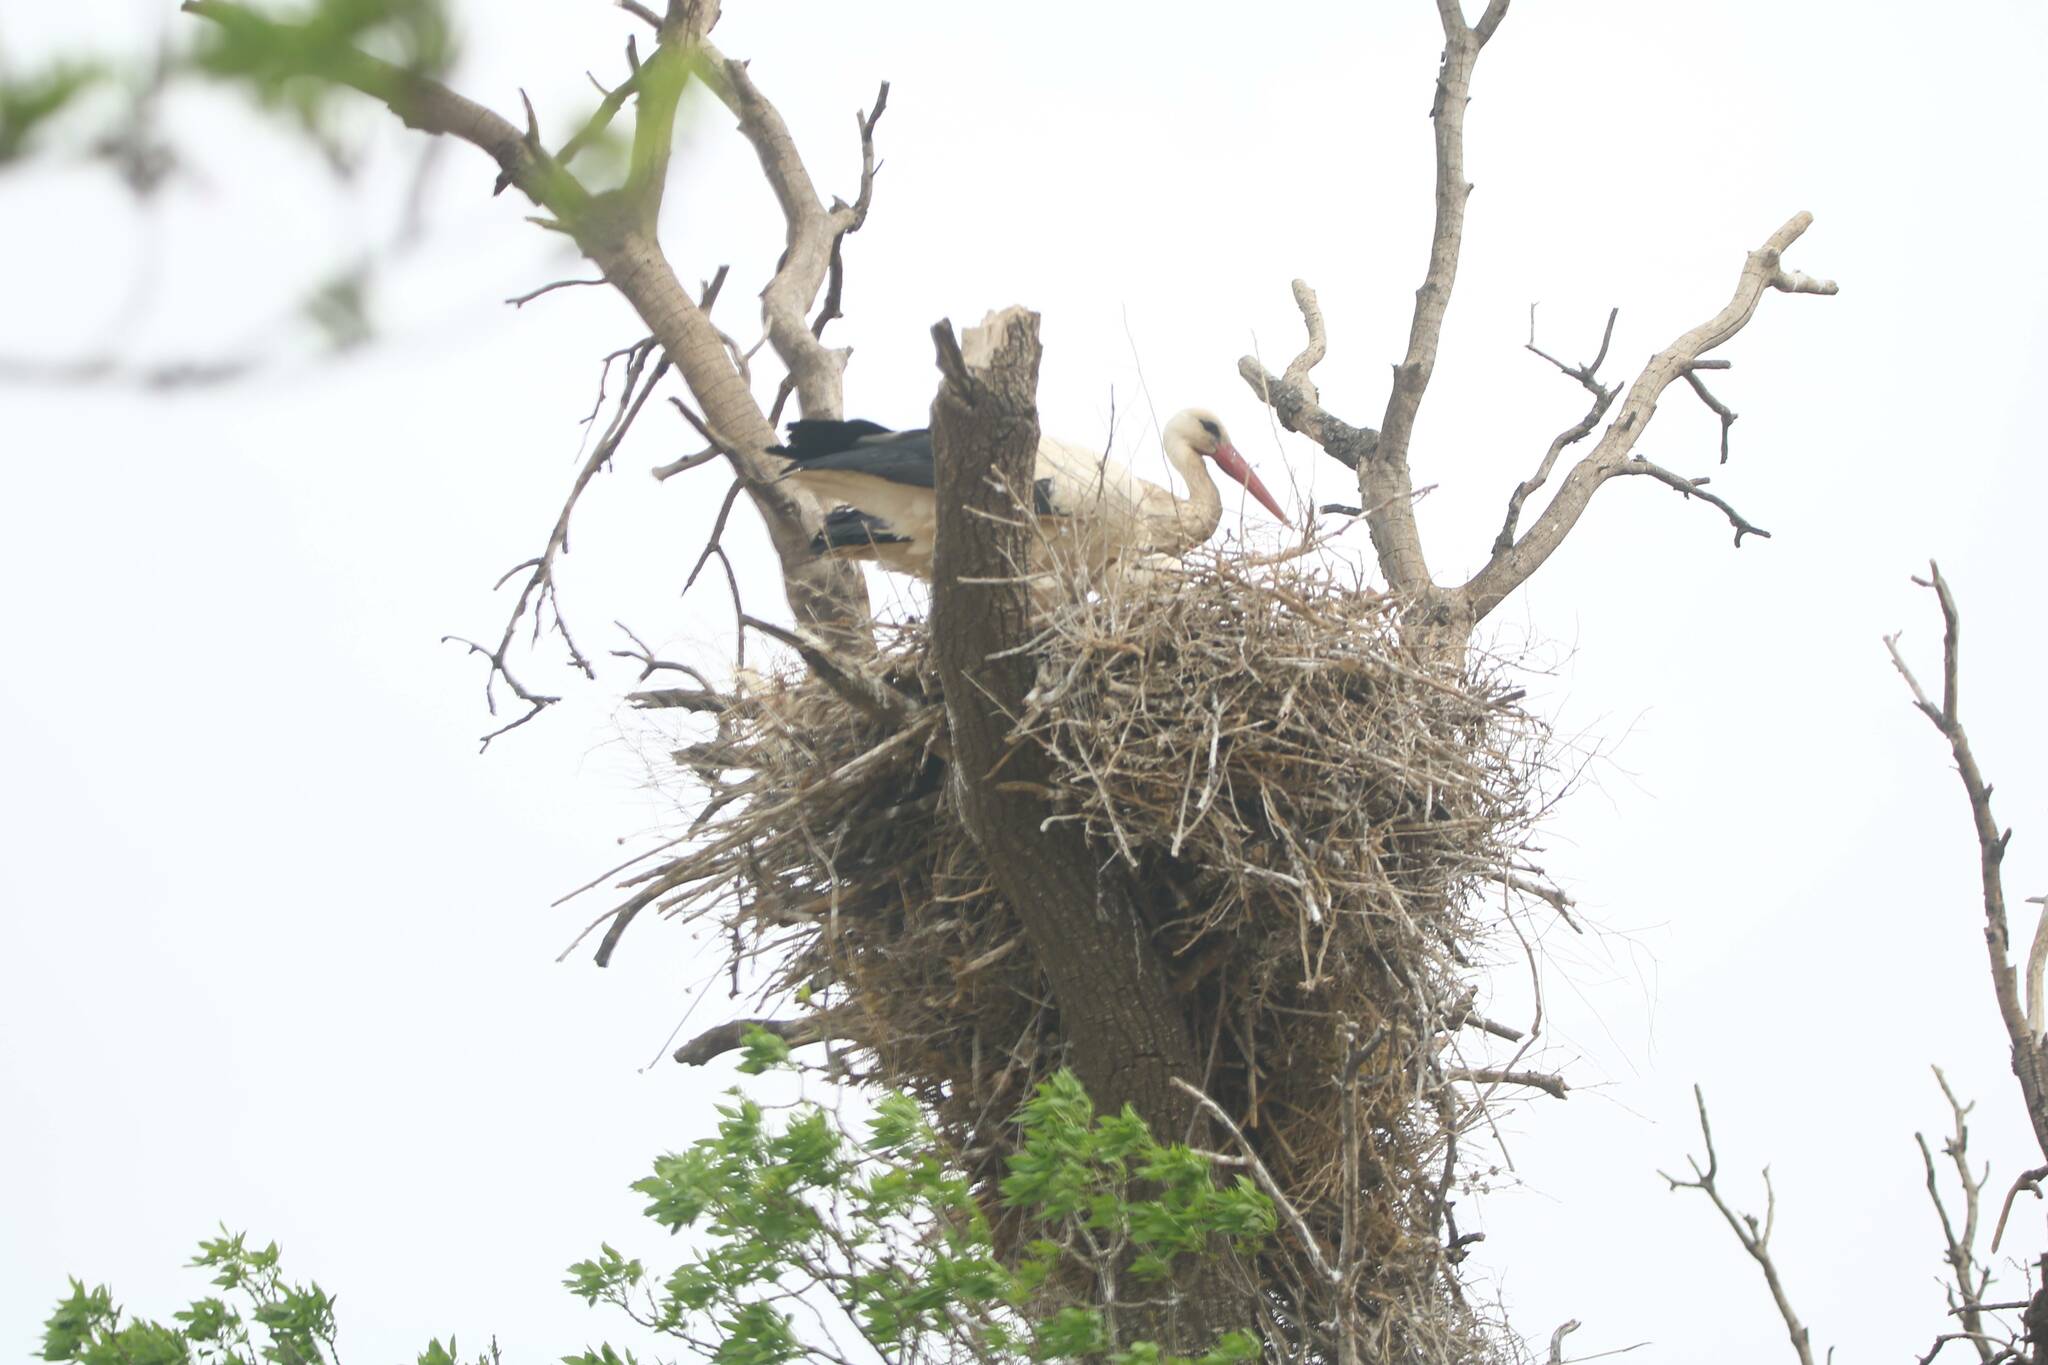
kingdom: Animalia
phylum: Chordata
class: Aves
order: Ciconiiformes
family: Ciconiidae
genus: Ciconia
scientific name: Ciconia ciconia
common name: White stork
